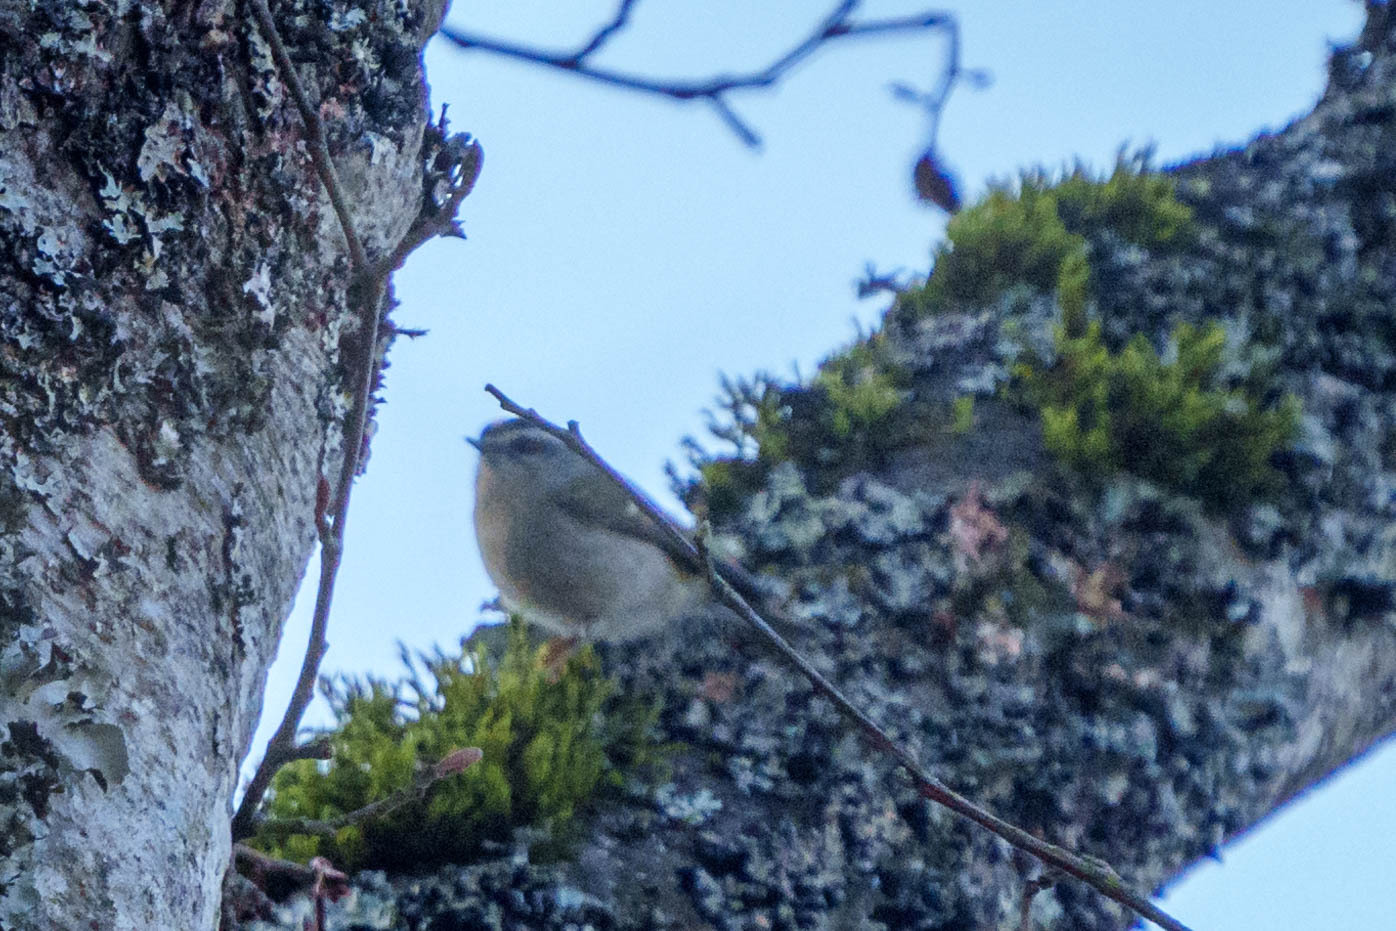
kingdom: Animalia
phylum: Chordata
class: Aves
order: Passeriformes
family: Regulidae
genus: Regulus
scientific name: Regulus satrapa
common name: Golden-crowned kinglet
